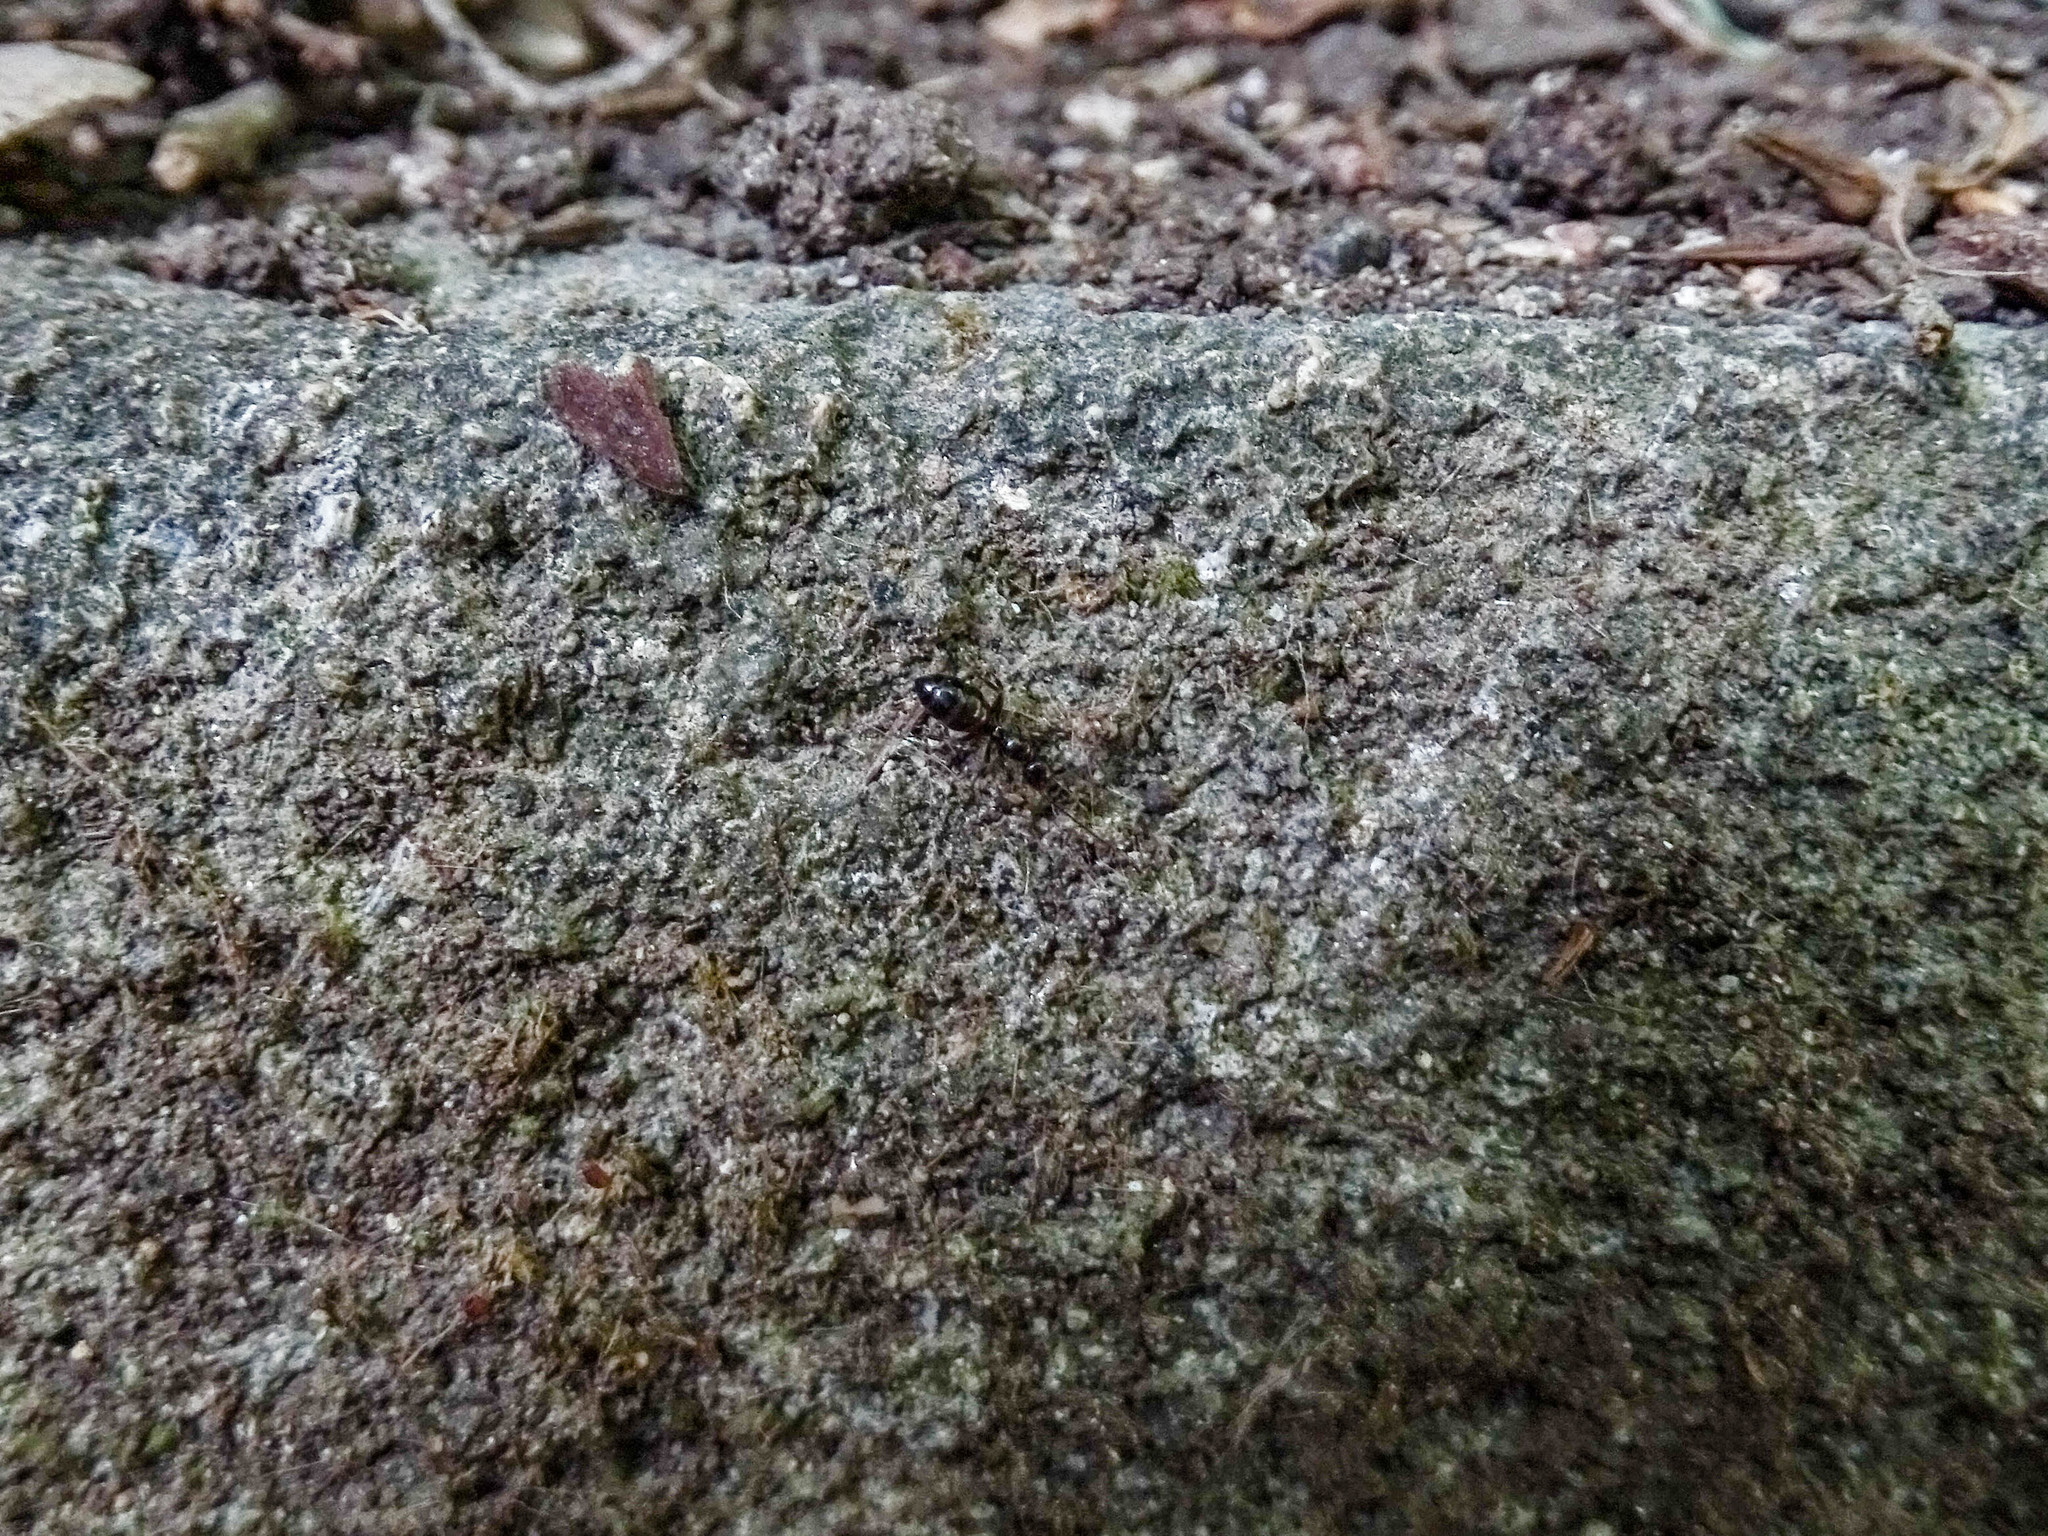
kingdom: Animalia
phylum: Arthropoda
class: Insecta
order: Hymenoptera
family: Formicidae
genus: Crematogaster
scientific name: Crematogaster schmidti
